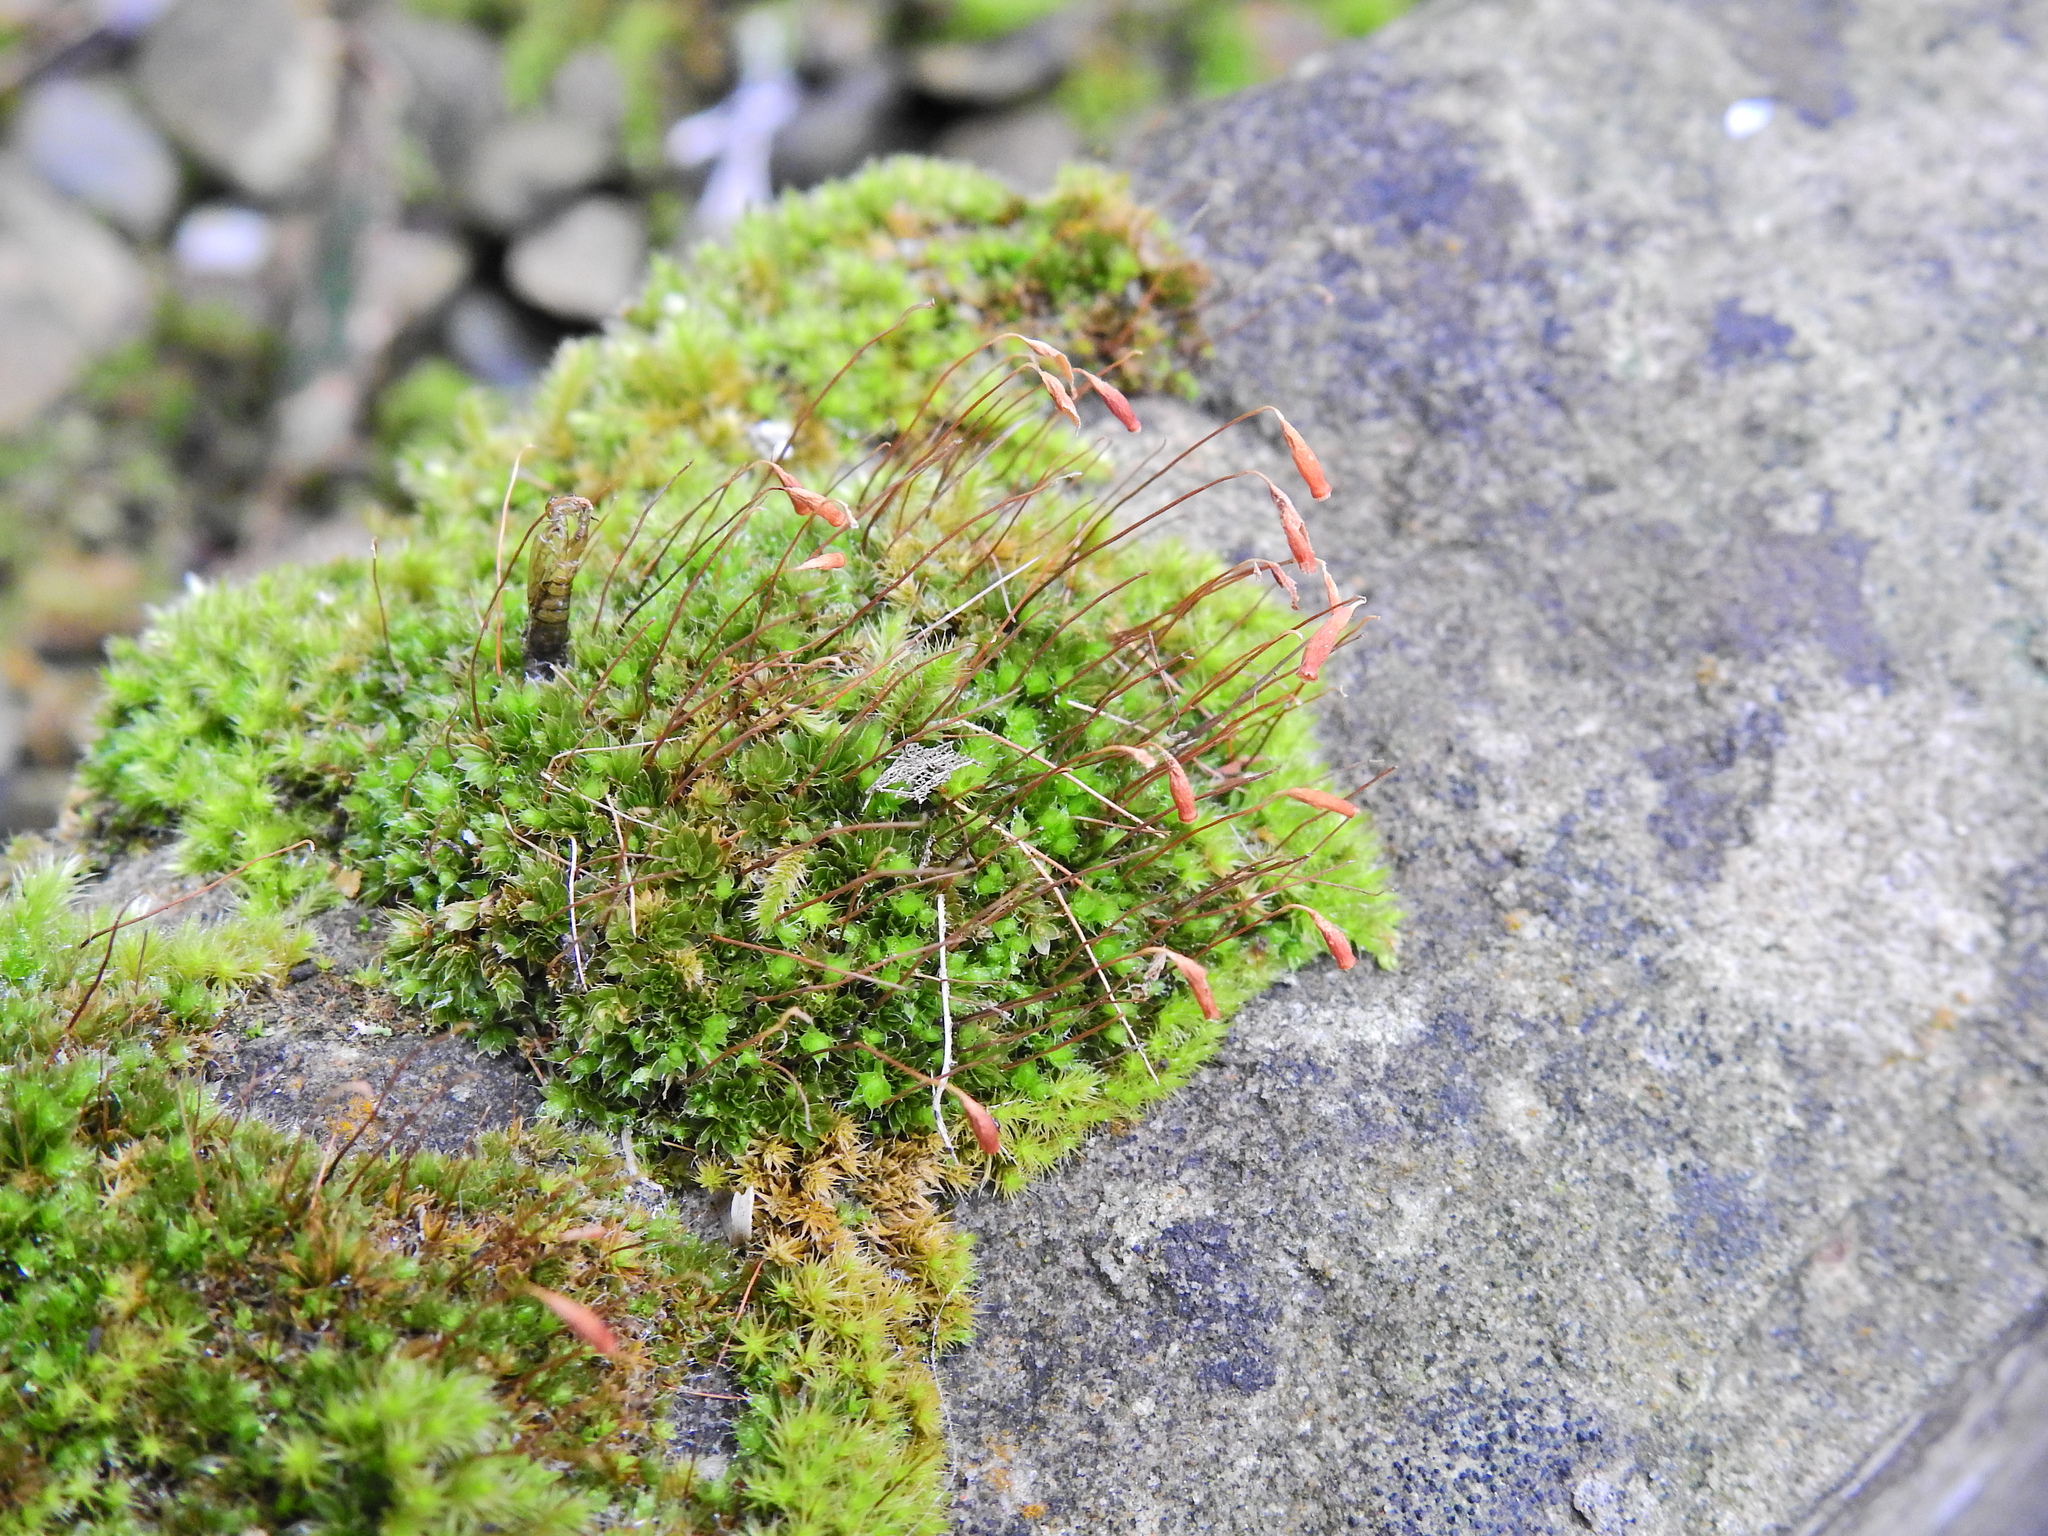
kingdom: Plantae
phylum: Bryophyta
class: Bryopsida
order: Bryales
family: Bryaceae
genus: Rosulabryum
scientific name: Rosulabryum capillare
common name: Capillary thread-moss
